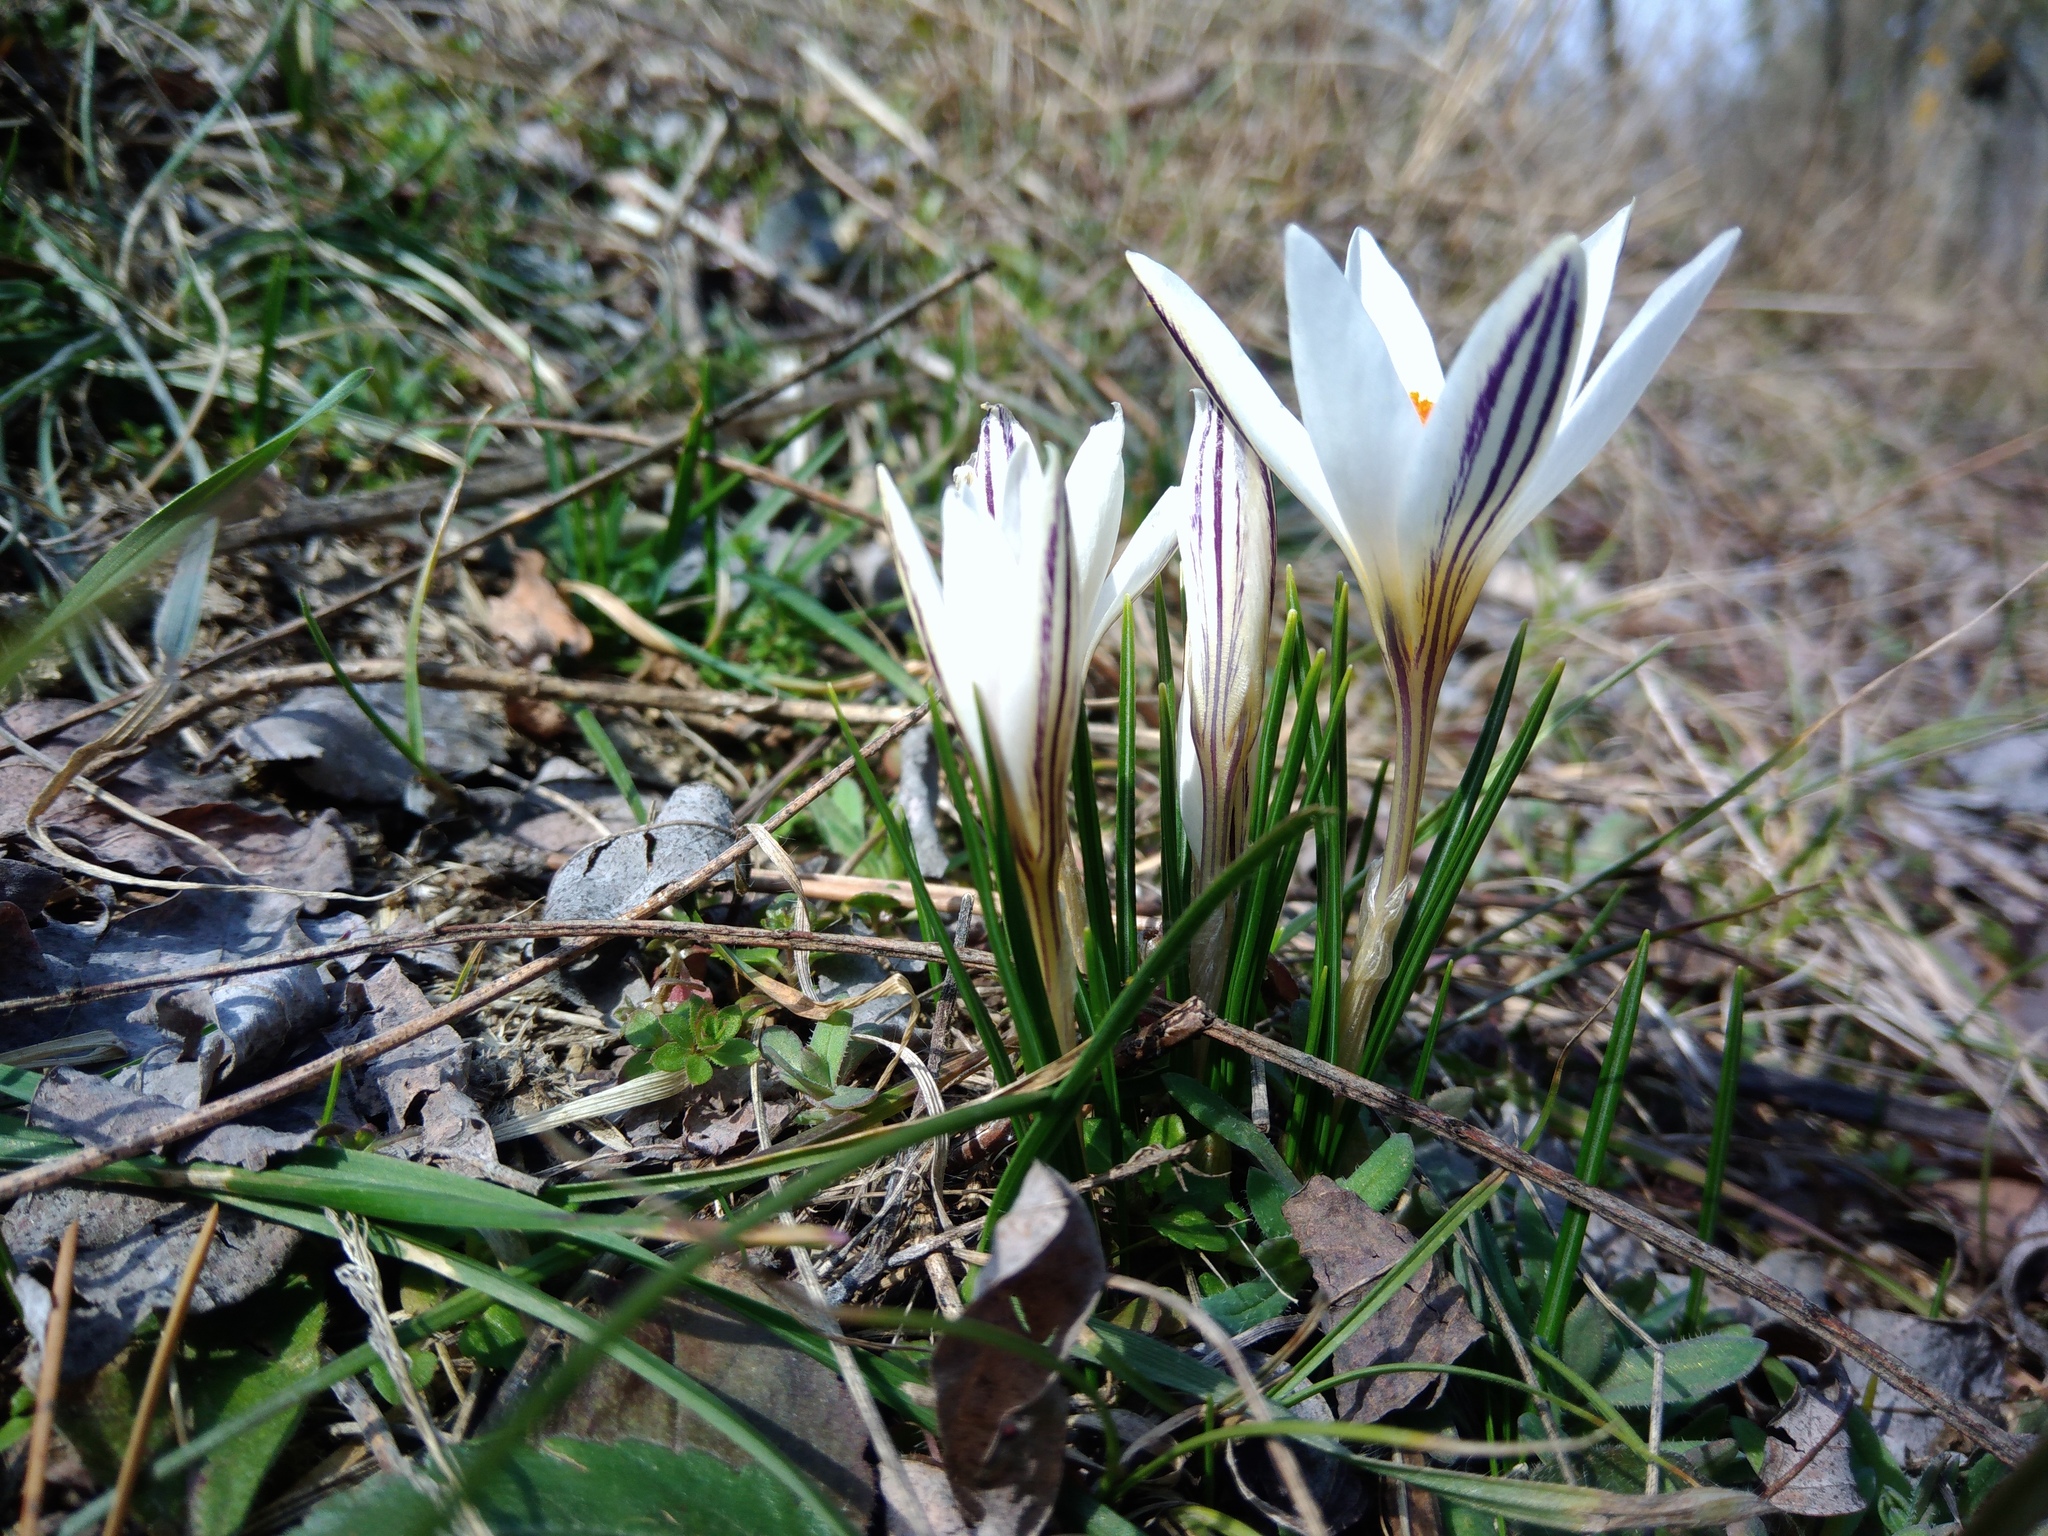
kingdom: Plantae
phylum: Tracheophyta
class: Liliopsida
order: Asparagales
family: Iridaceae
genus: Crocus
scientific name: Crocus reticulatus
